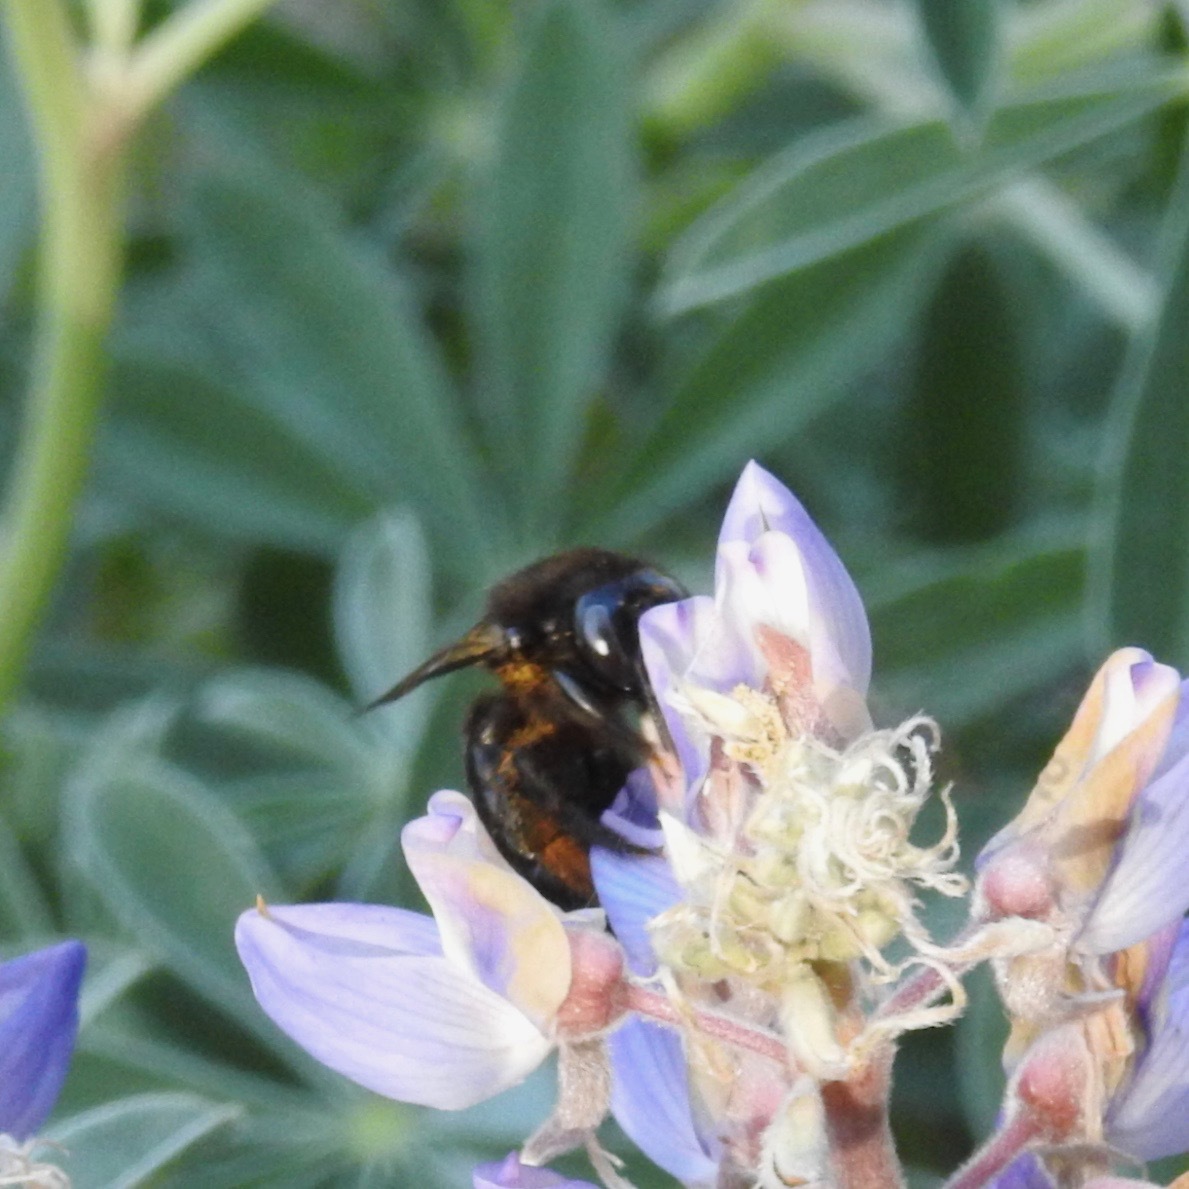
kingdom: Animalia
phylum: Arthropoda
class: Insecta
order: Hymenoptera
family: Apidae
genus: Xylocopa
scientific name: Xylocopa tabaniformis
